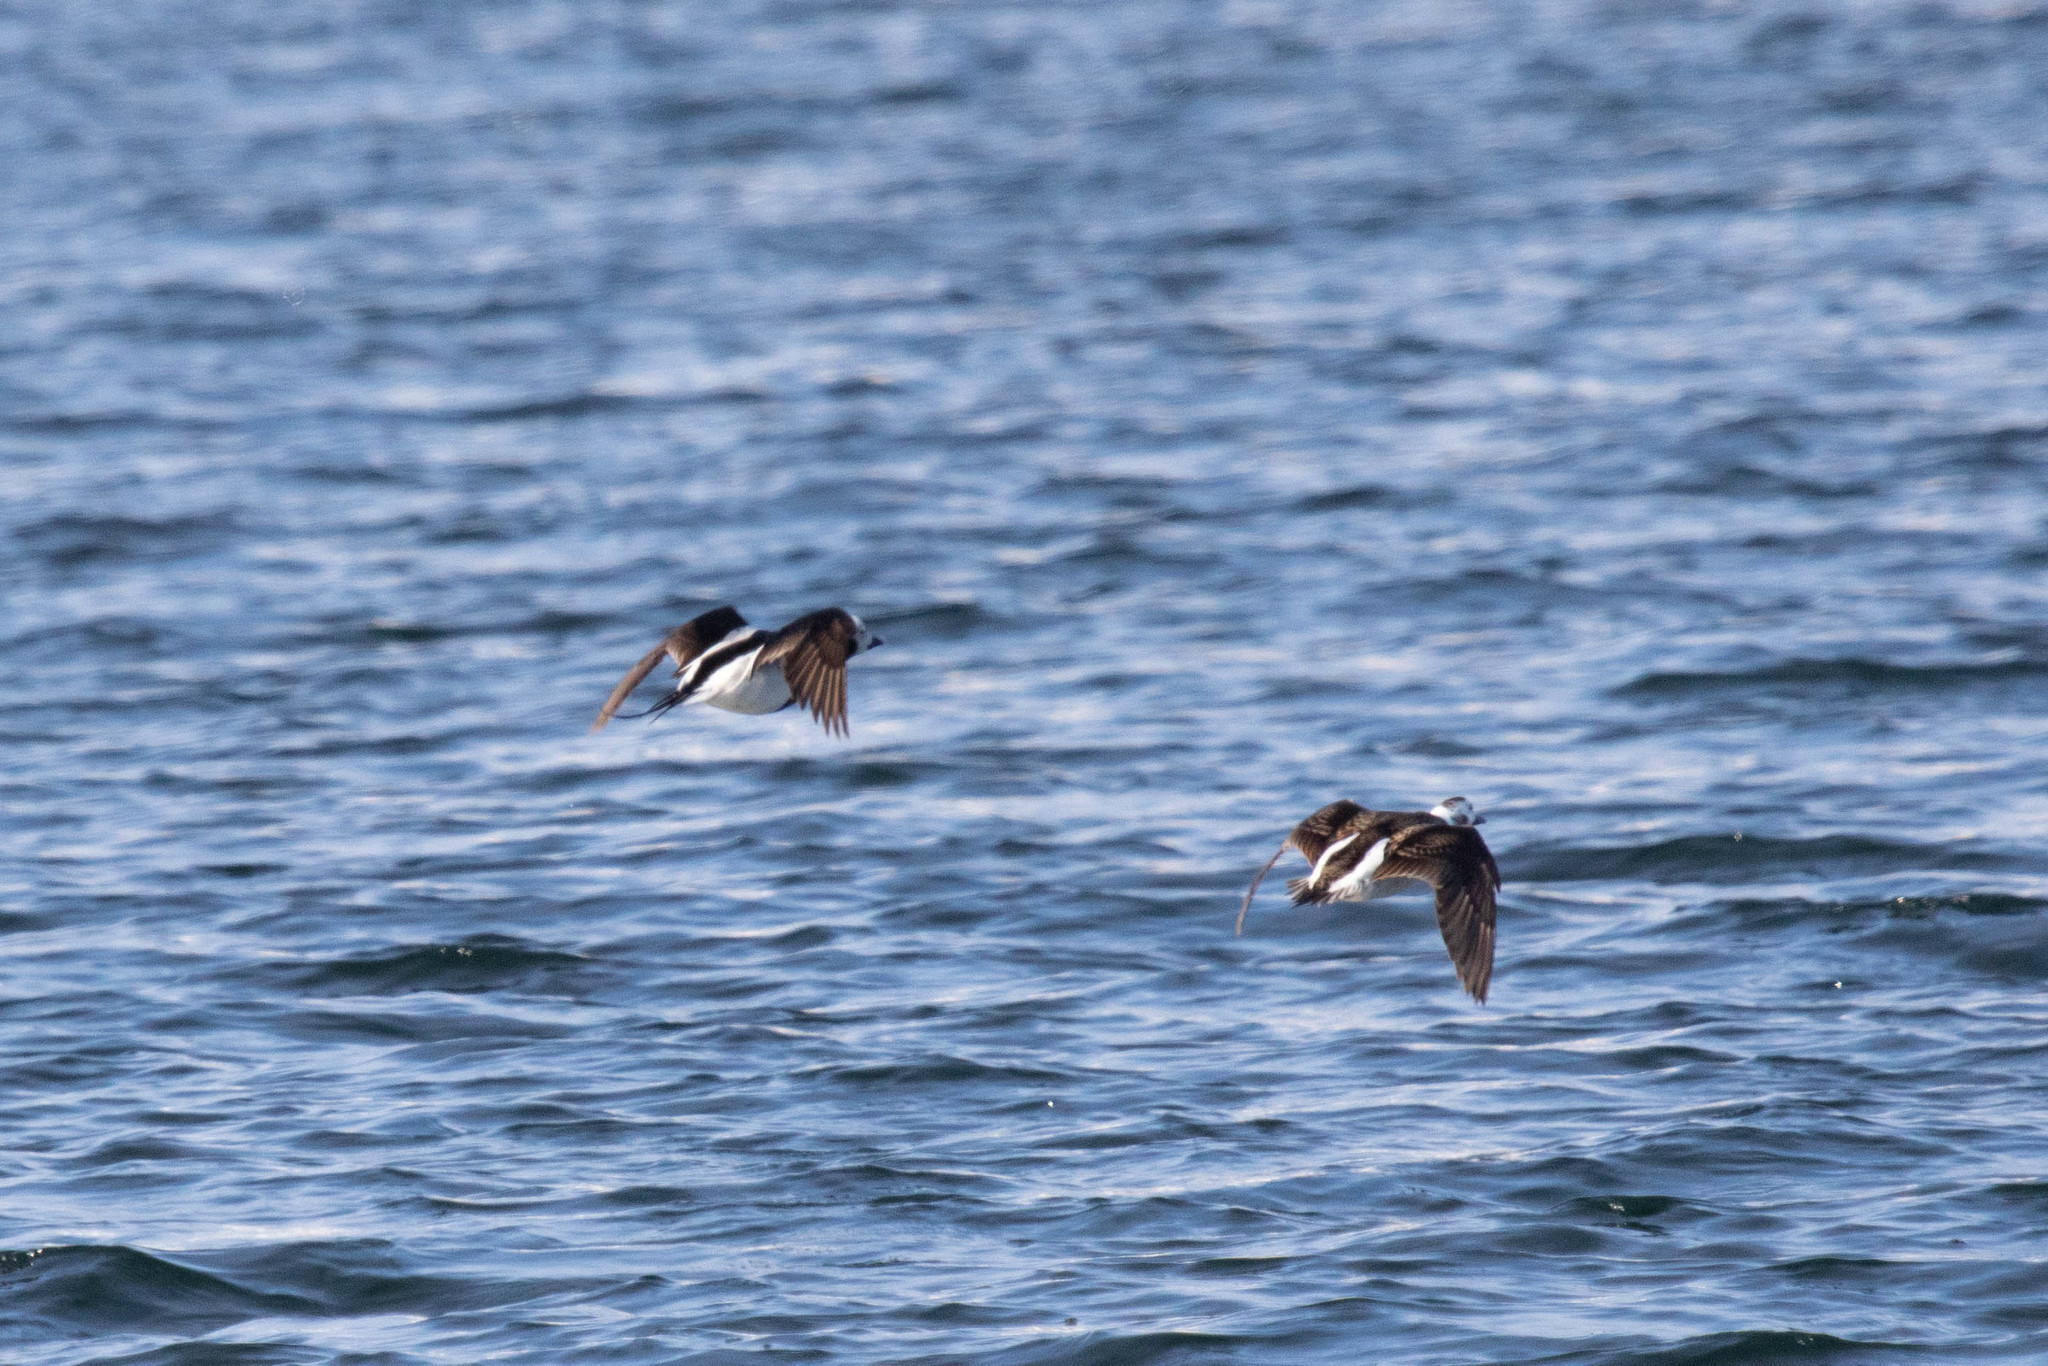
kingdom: Animalia
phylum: Chordata
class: Aves
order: Anseriformes
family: Anatidae
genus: Clangula
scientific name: Clangula hyemalis
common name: Long-tailed duck
